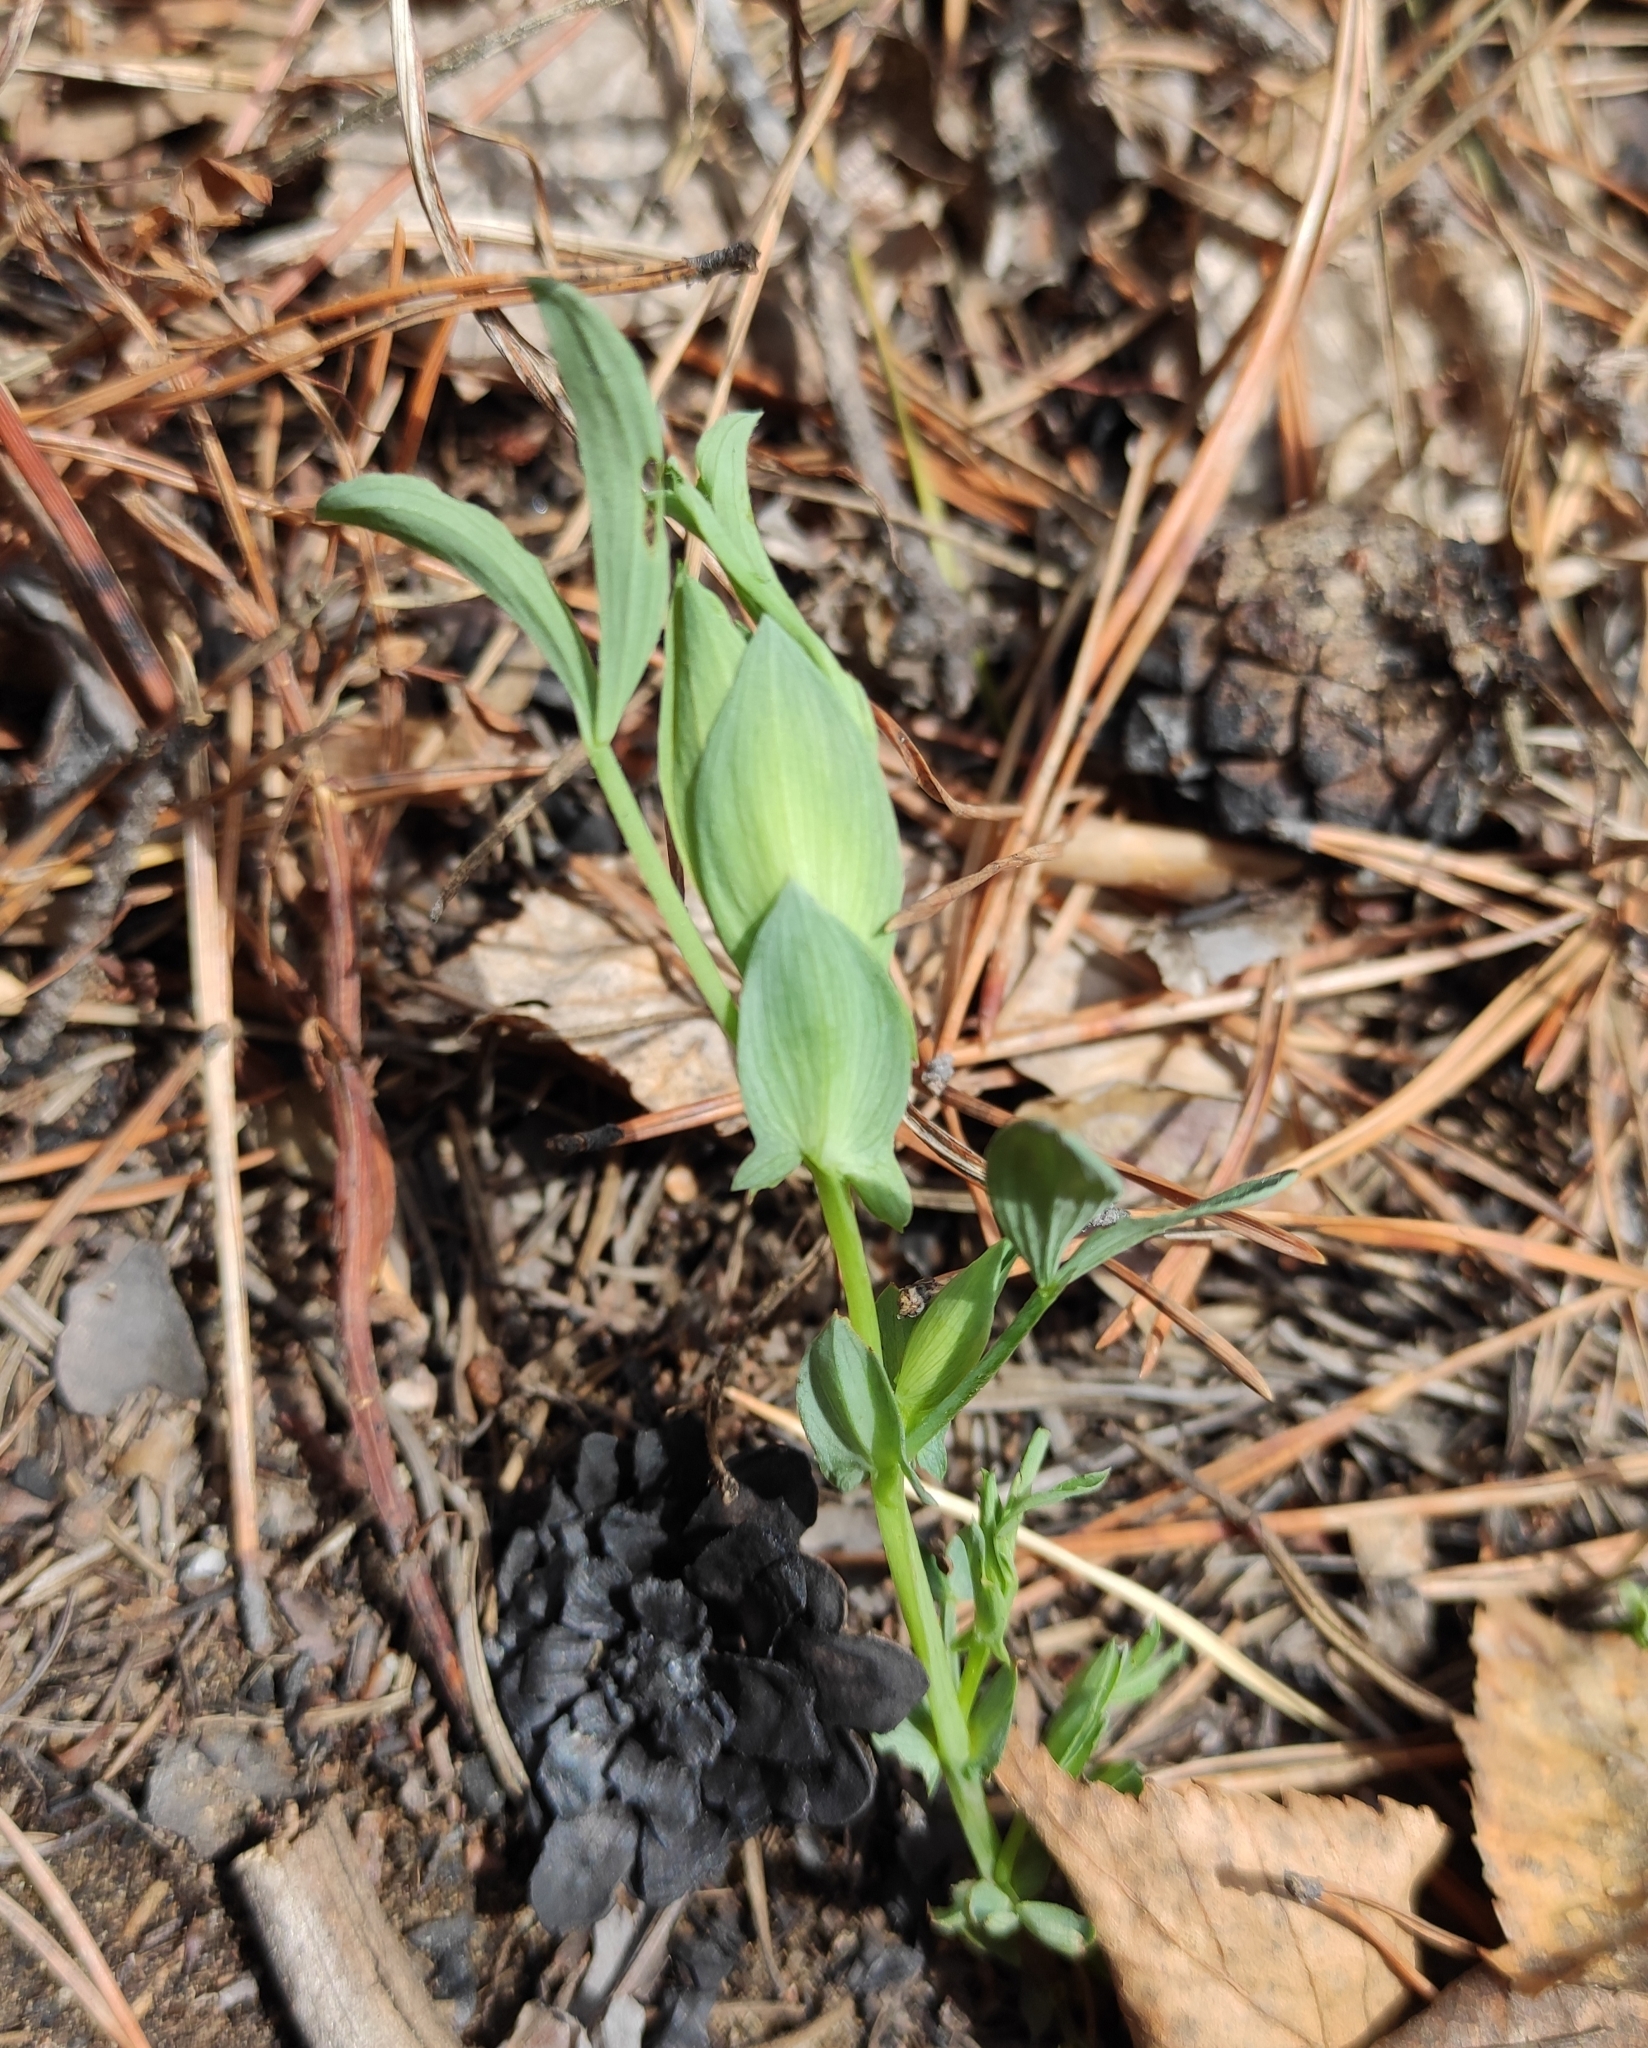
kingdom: Plantae
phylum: Tracheophyta
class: Magnoliopsida
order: Fabales
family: Fabaceae
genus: Lathyrus
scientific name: Lathyrus pratensis
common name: Meadow vetchling
